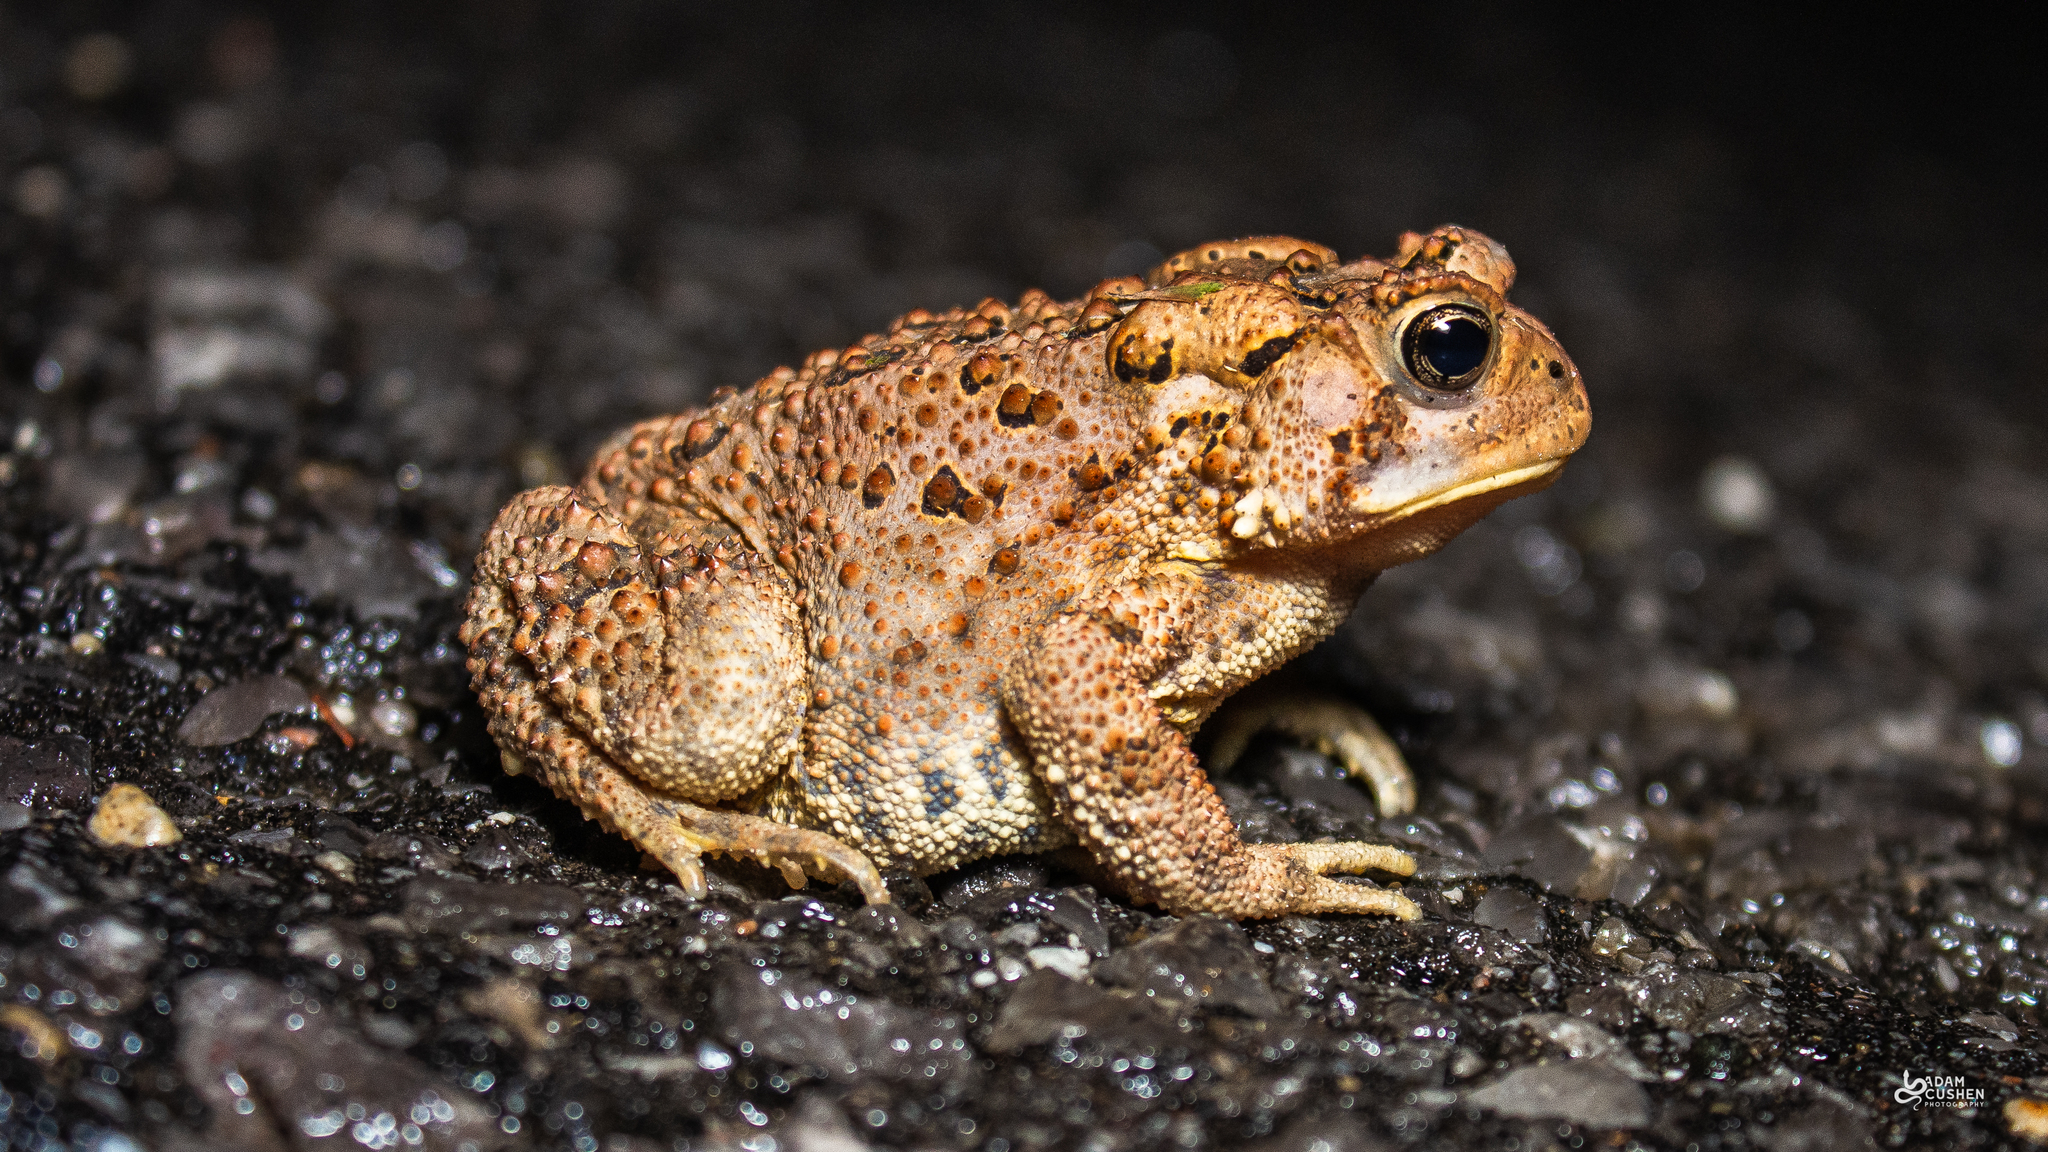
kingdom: Animalia
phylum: Chordata
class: Amphibia
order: Anura
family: Bufonidae
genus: Anaxyrus
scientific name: Anaxyrus americanus
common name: American toad
